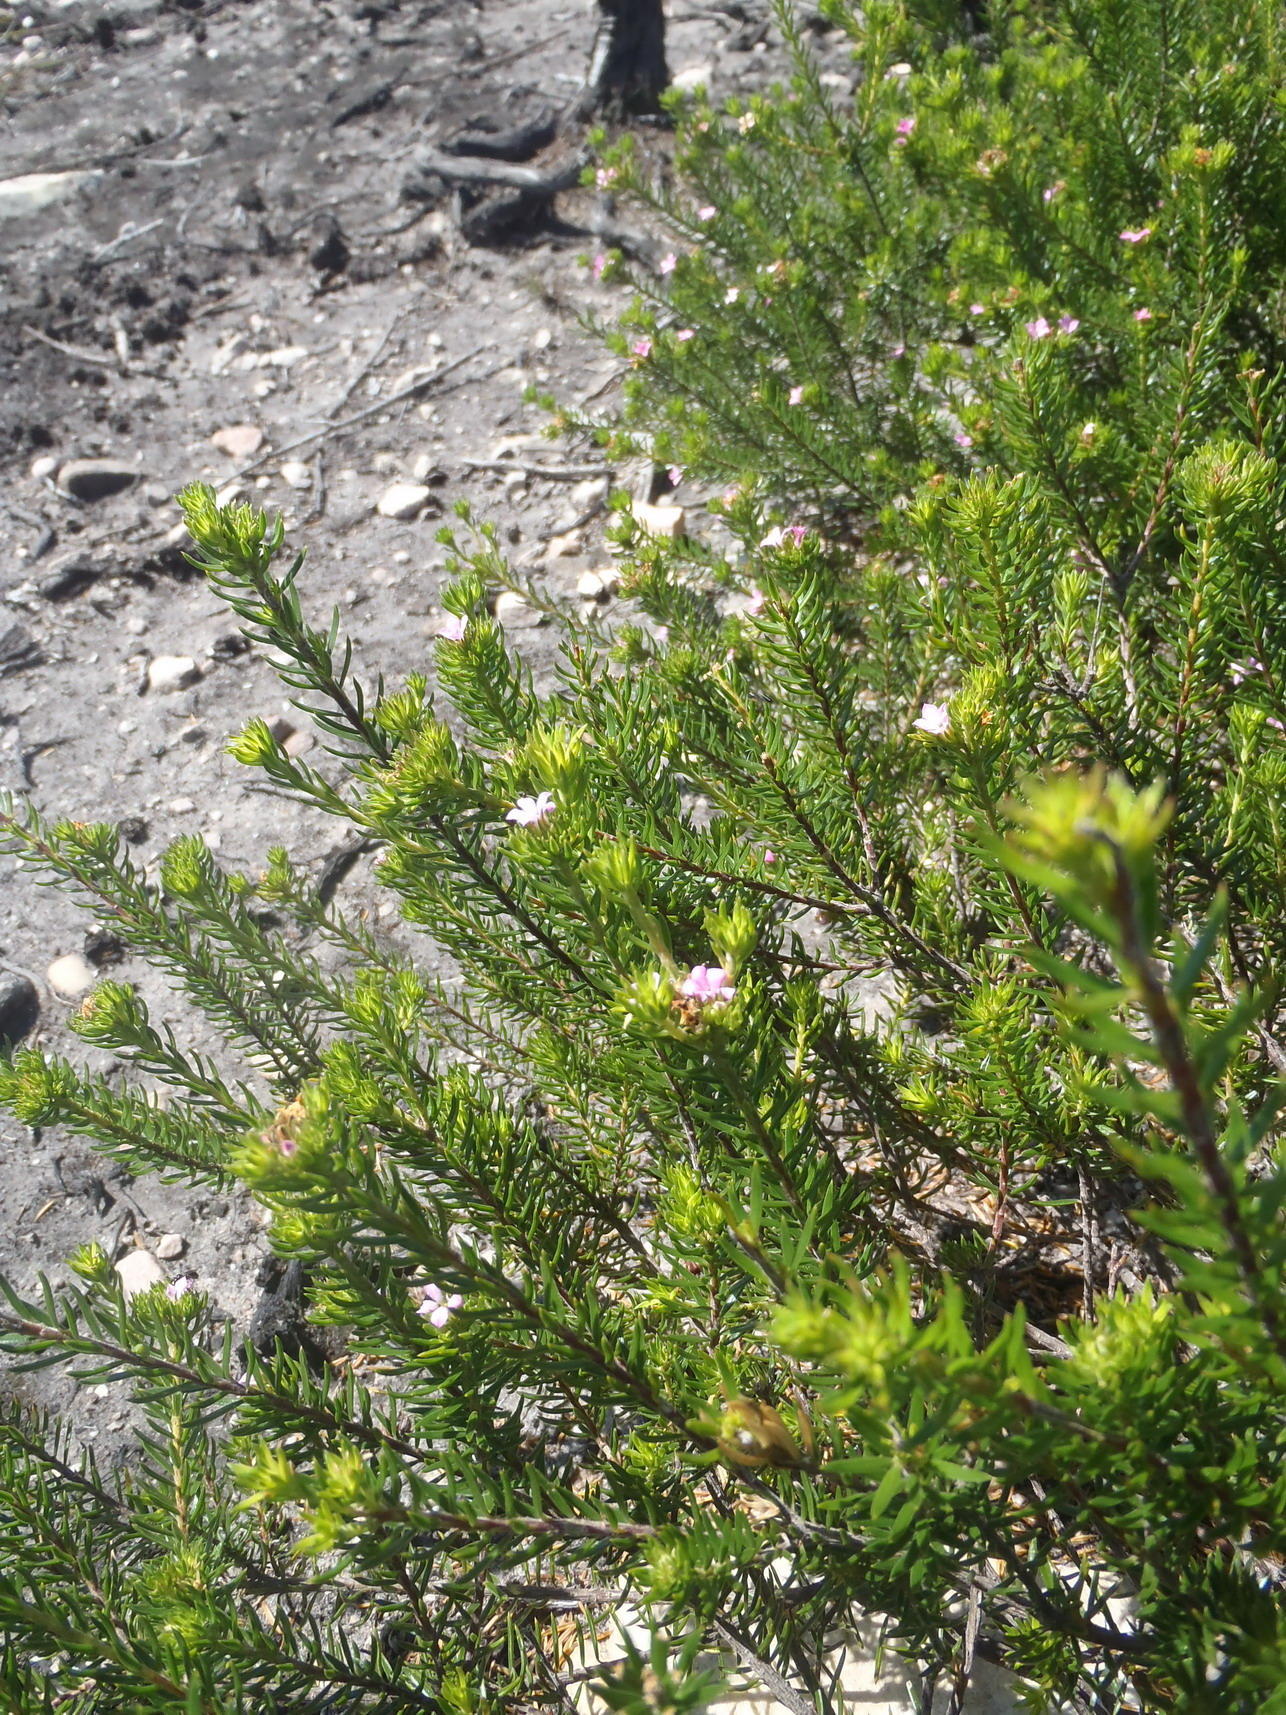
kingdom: Plantae
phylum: Tracheophyta
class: Magnoliopsida
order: Sapindales
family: Rutaceae
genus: Acmadenia
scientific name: Acmadenia alternifolia
